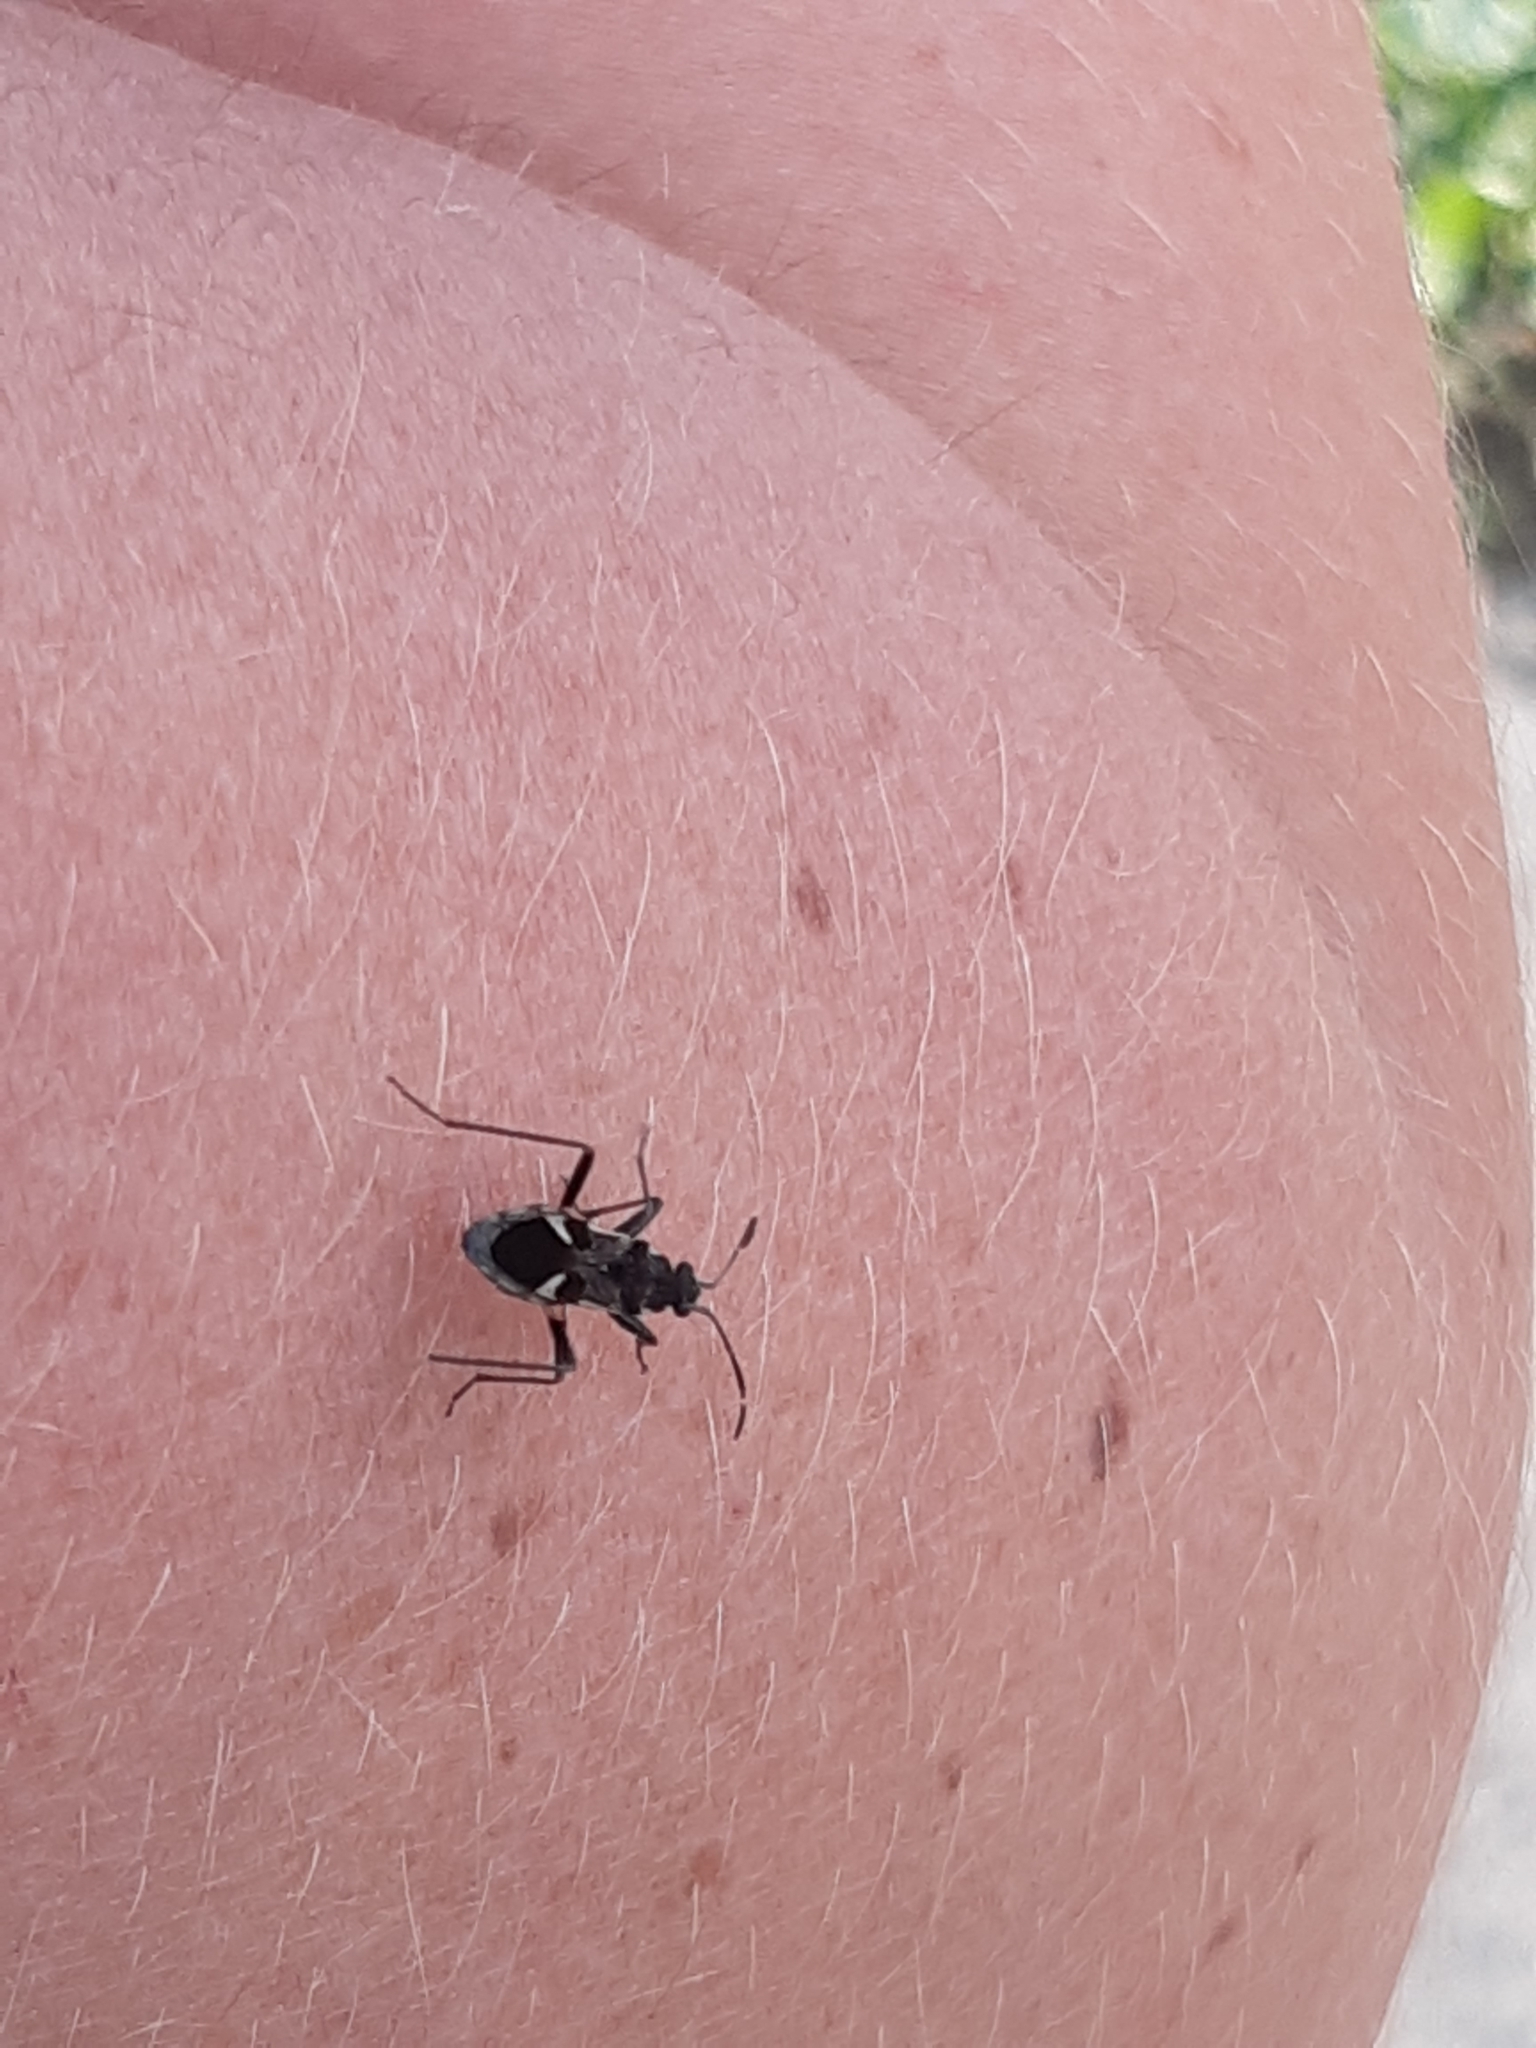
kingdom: Animalia
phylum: Arthropoda
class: Insecta
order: Hemiptera
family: Rhyparochromidae
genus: Dieuches
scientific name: Dieuches notatus
